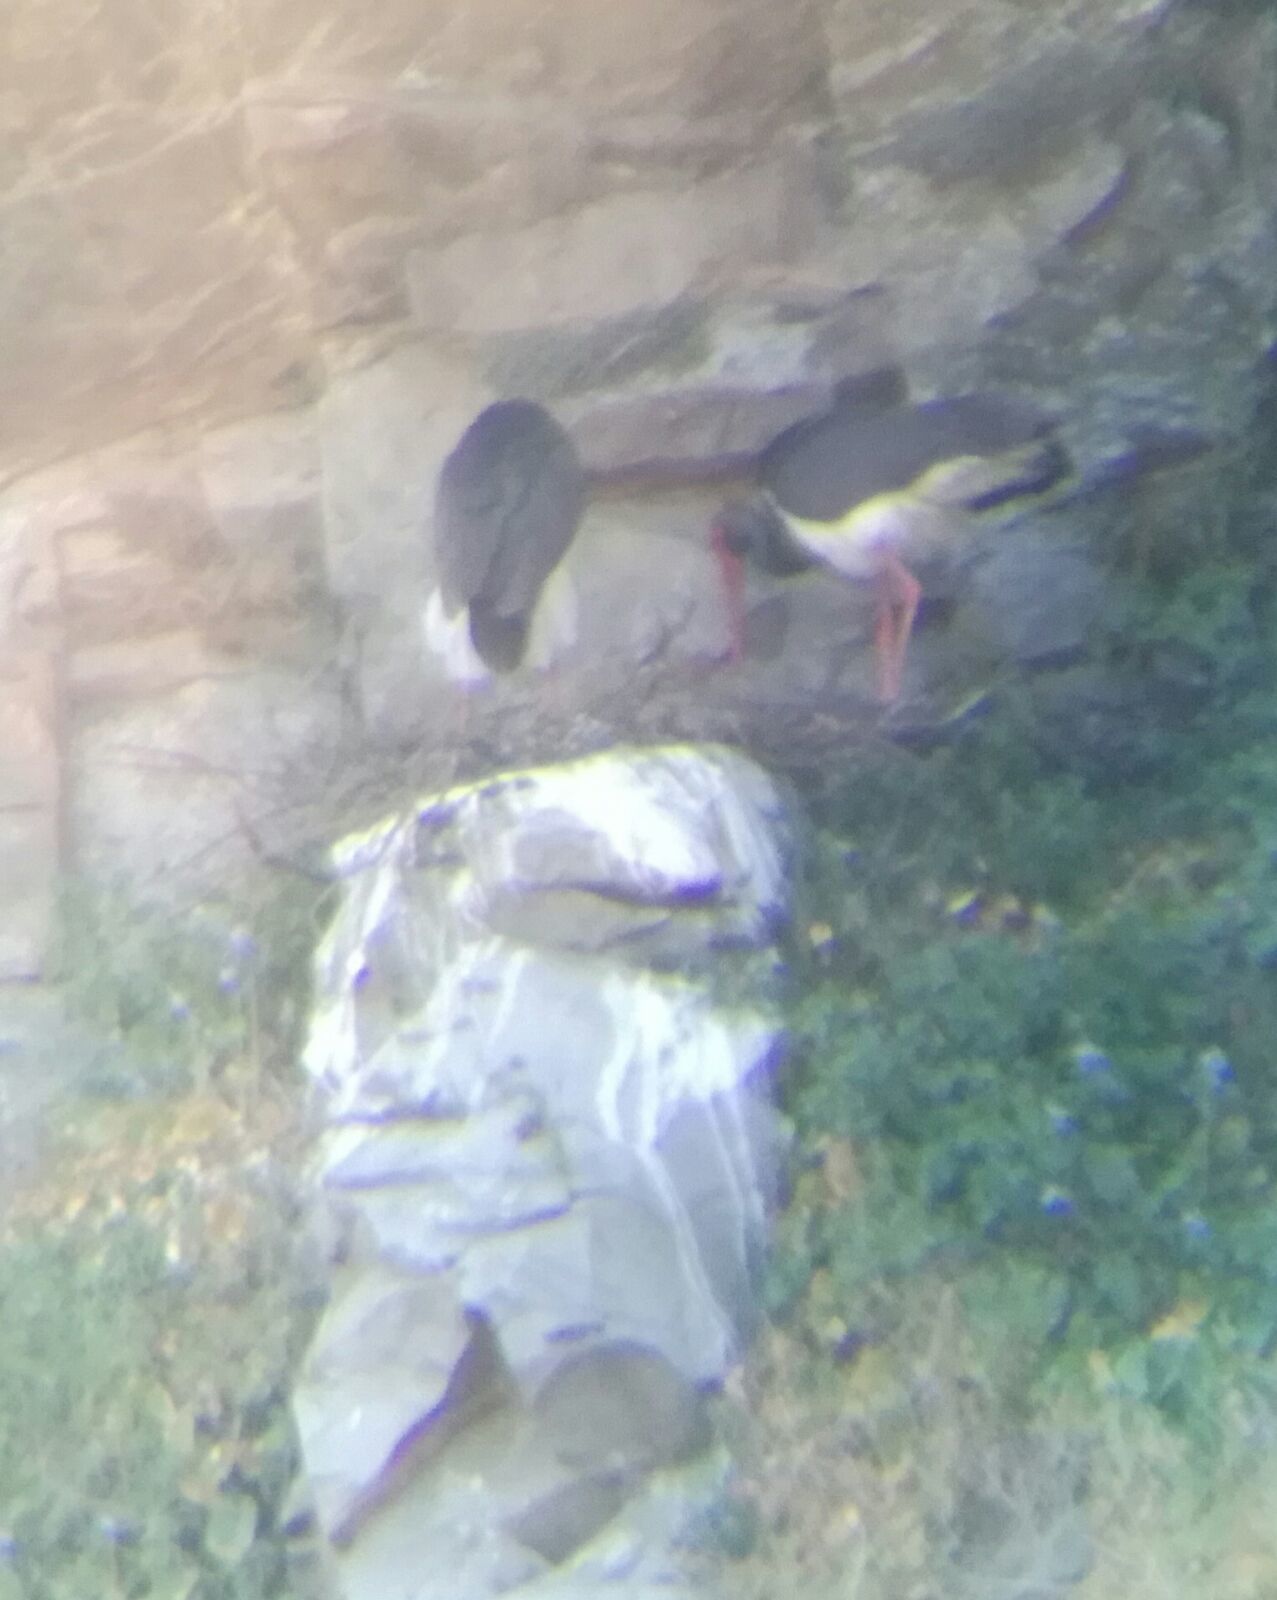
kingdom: Animalia
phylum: Chordata
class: Aves
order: Ciconiiformes
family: Ciconiidae
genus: Ciconia
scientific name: Ciconia nigra
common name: Black stork
